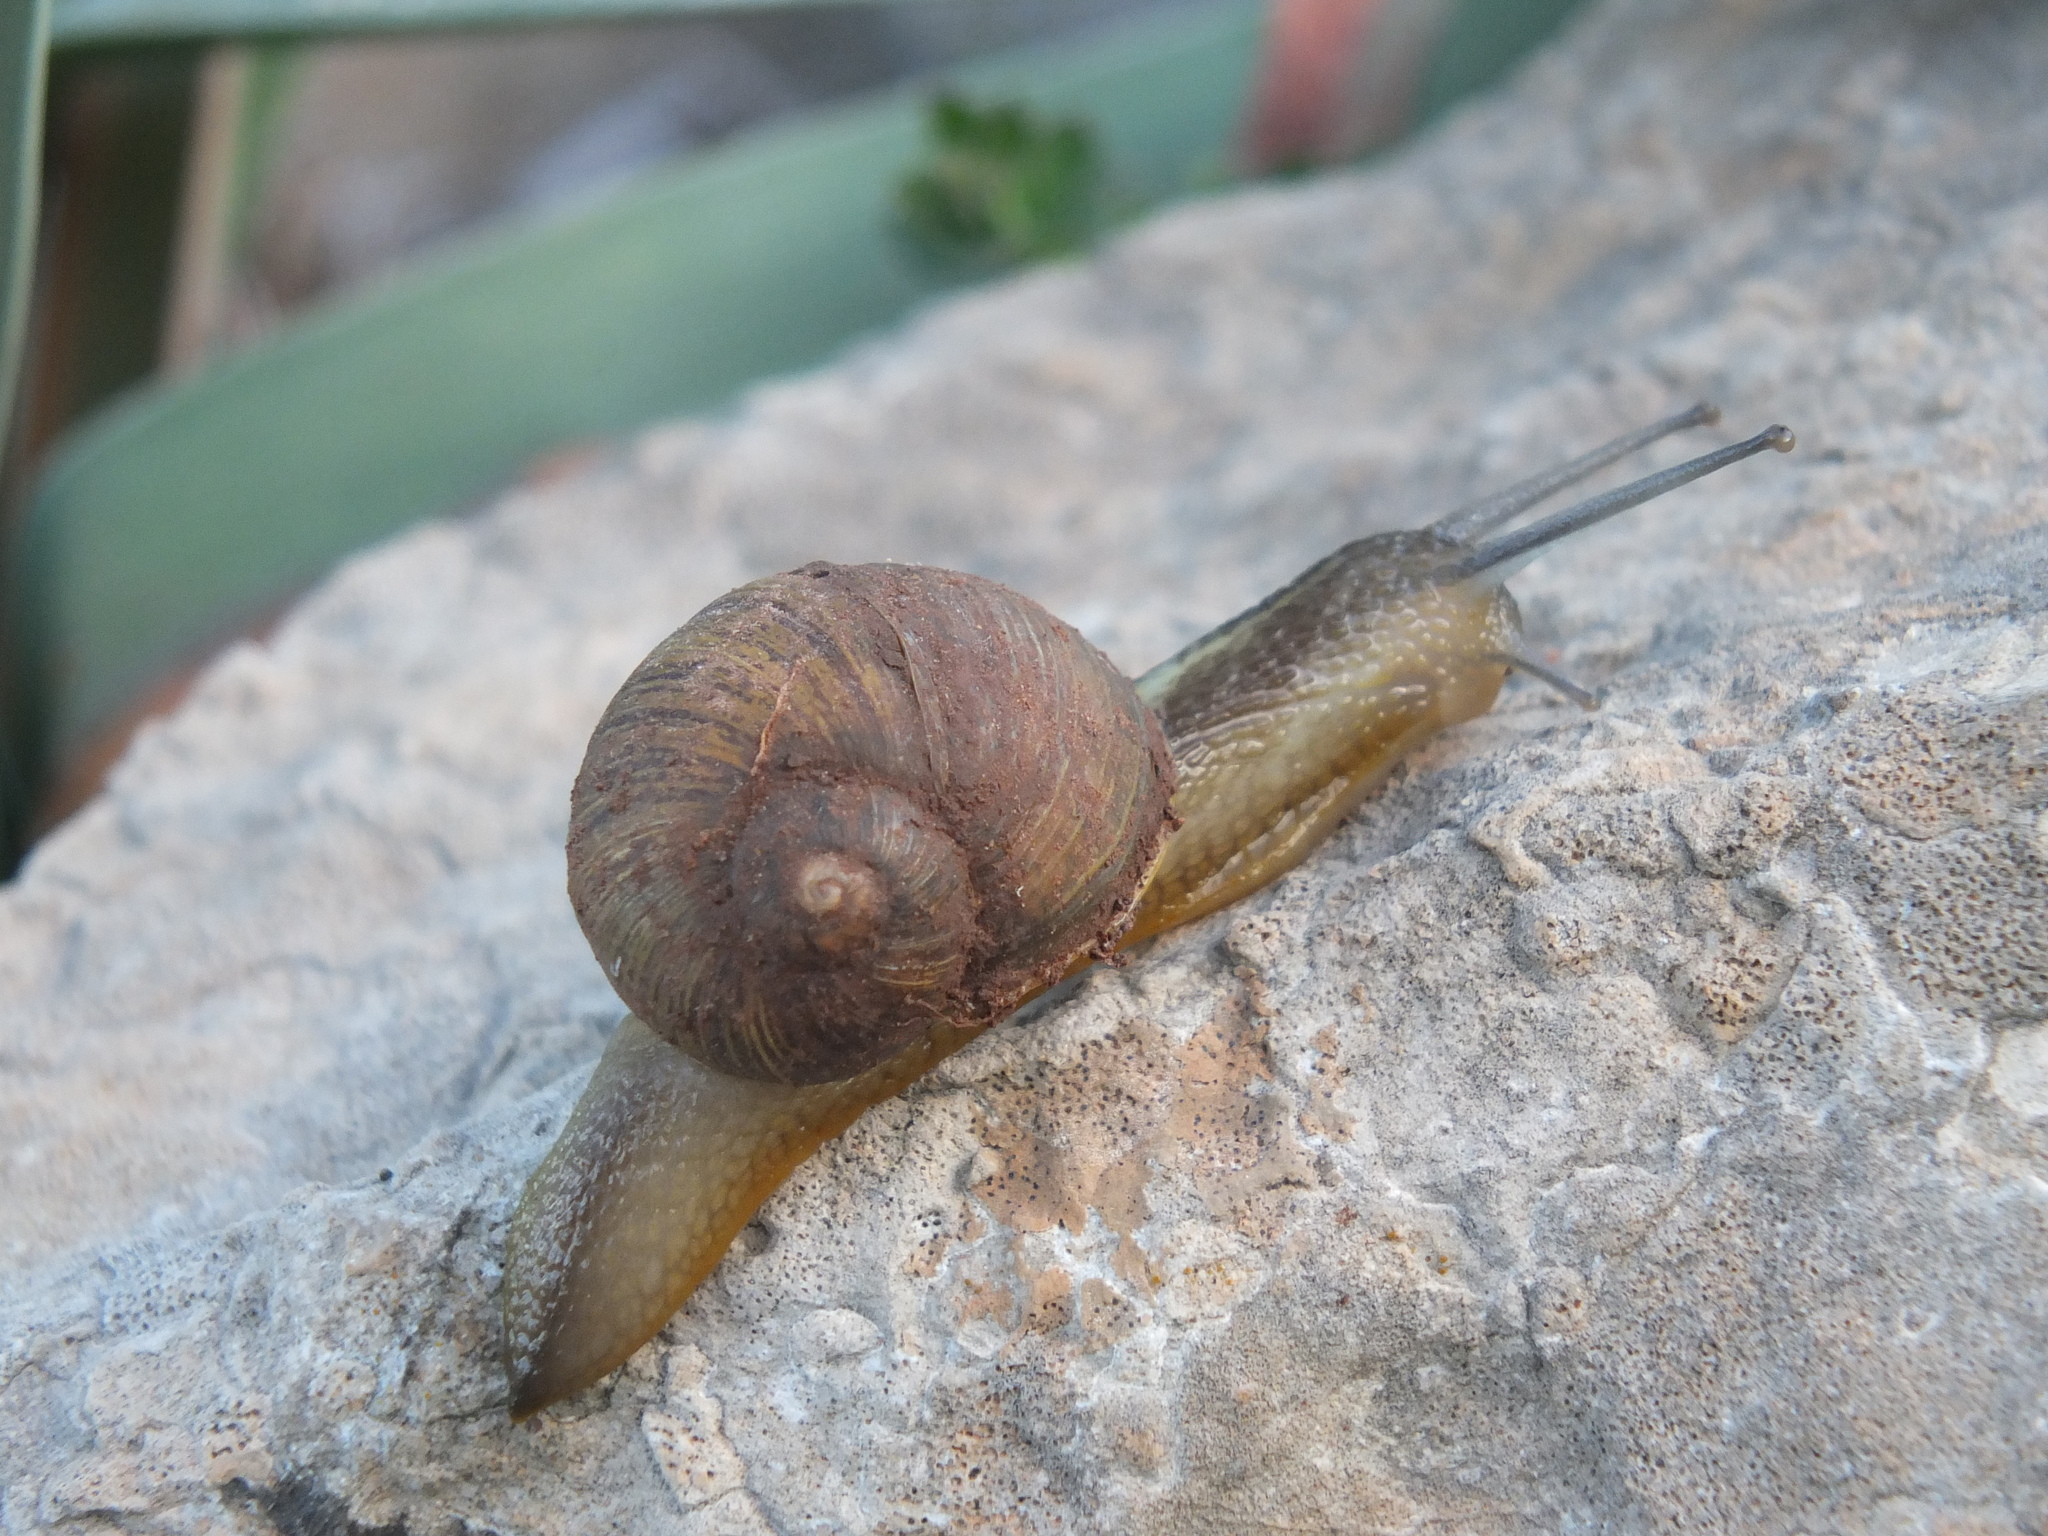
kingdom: Animalia
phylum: Mollusca
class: Gastropoda
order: Stylommatophora
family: Helicidae
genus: Cantareus
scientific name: Cantareus apertus
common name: Green gardensnail
